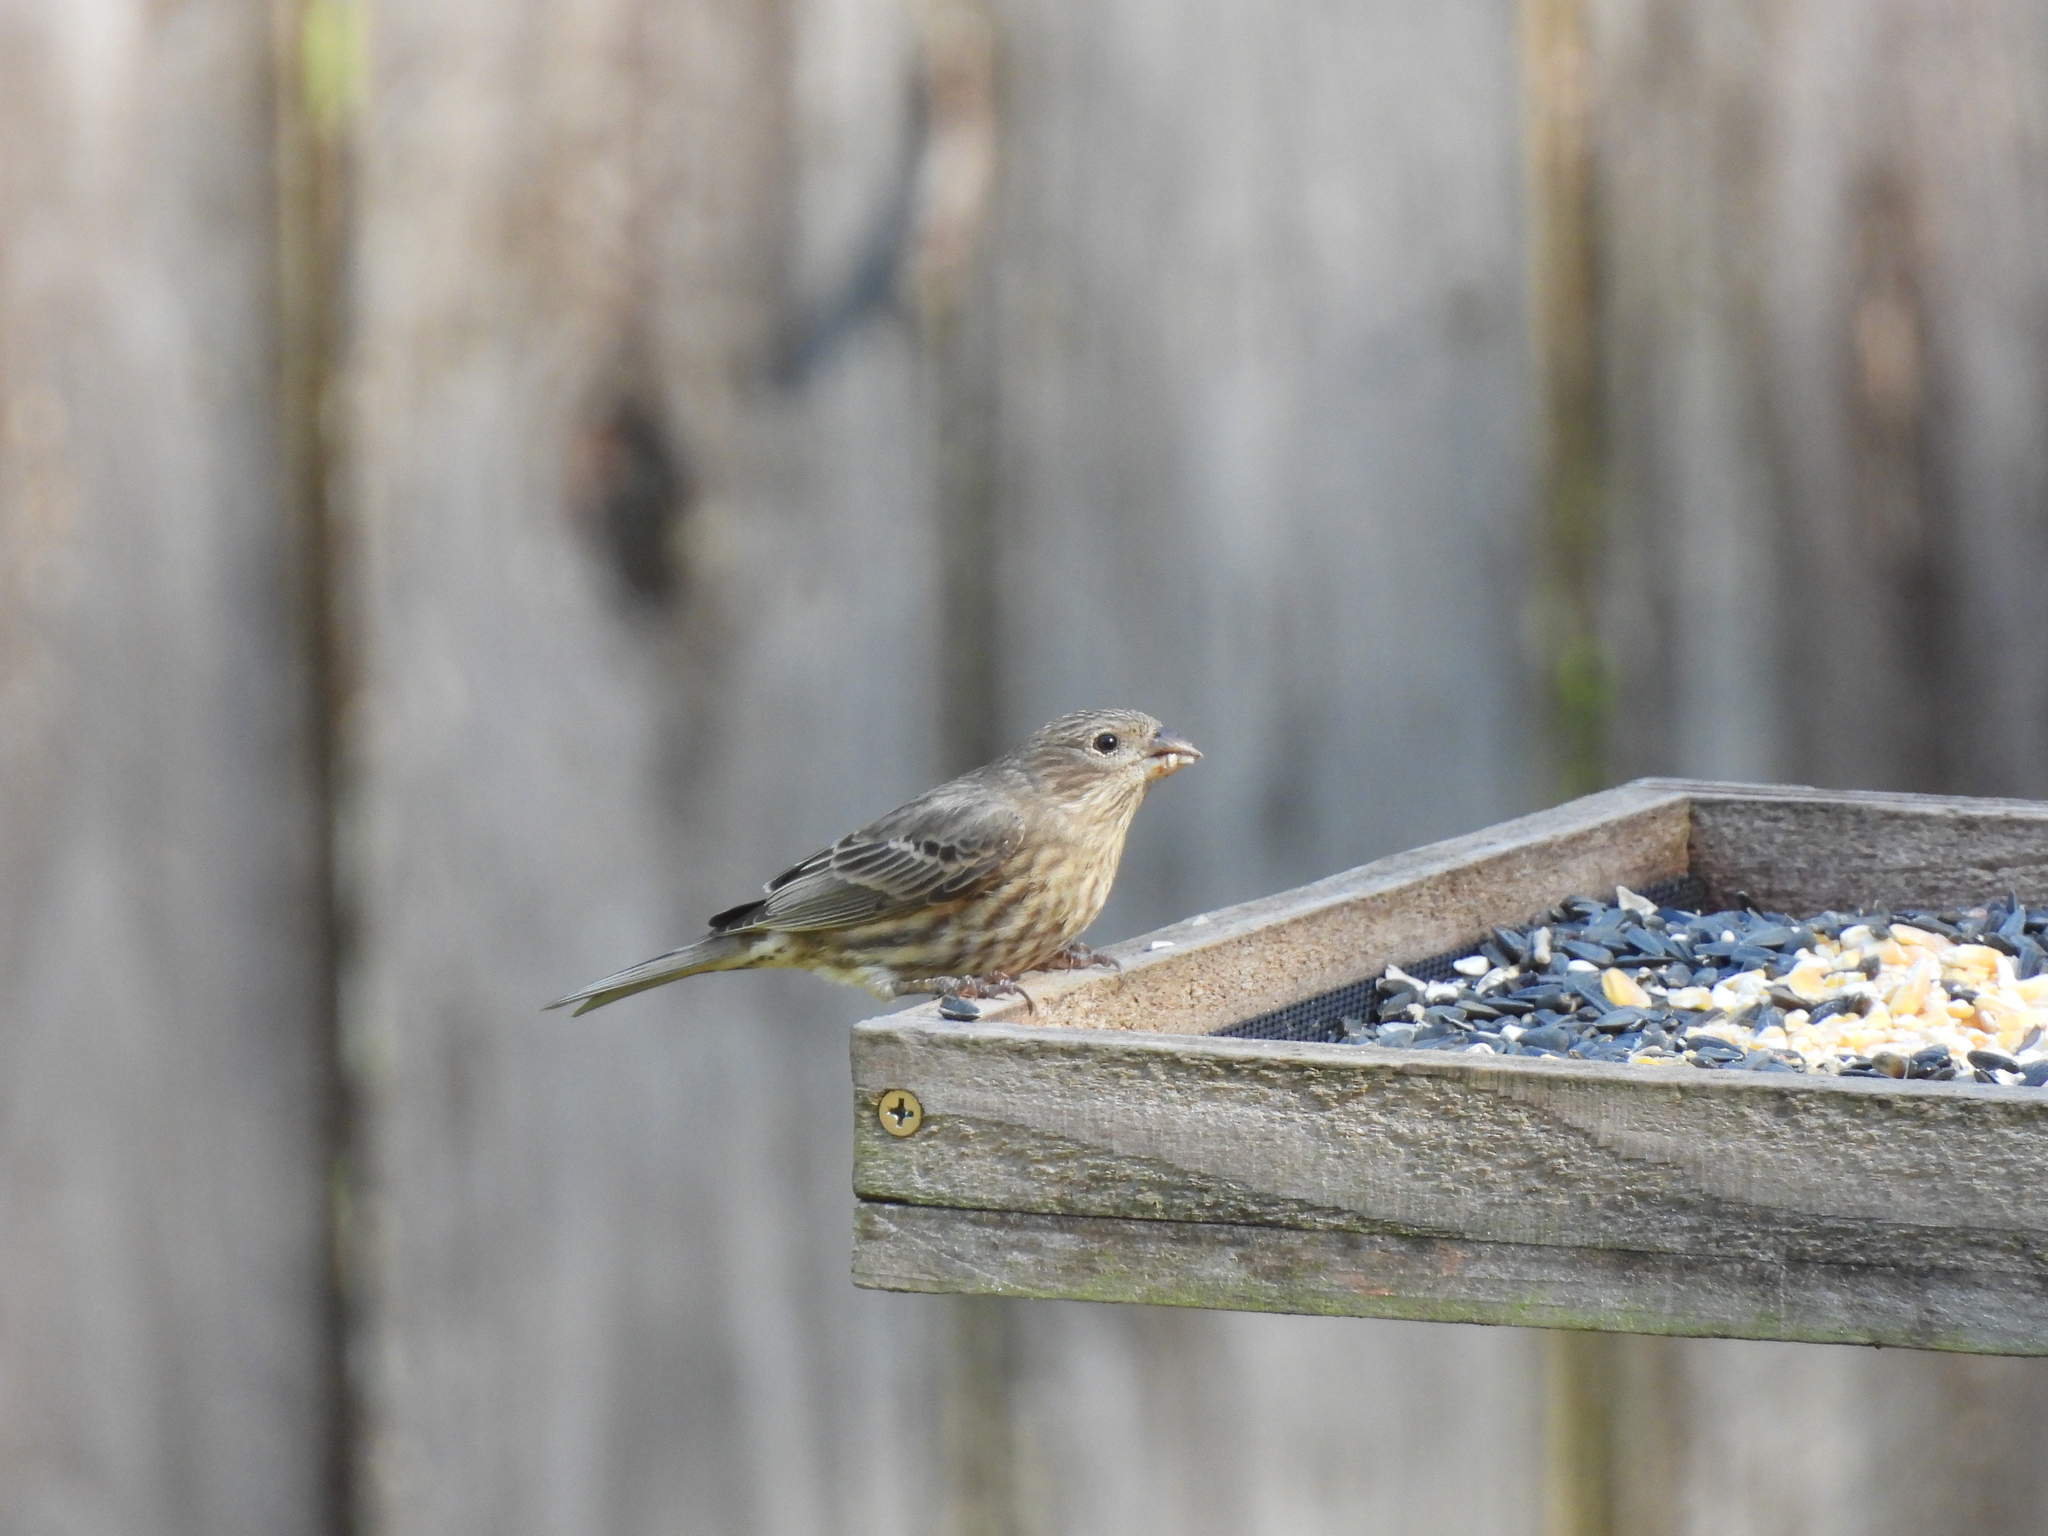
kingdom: Animalia
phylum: Chordata
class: Aves
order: Passeriformes
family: Fringillidae
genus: Haemorhous
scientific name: Haemorhous mexicanus
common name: House finch
